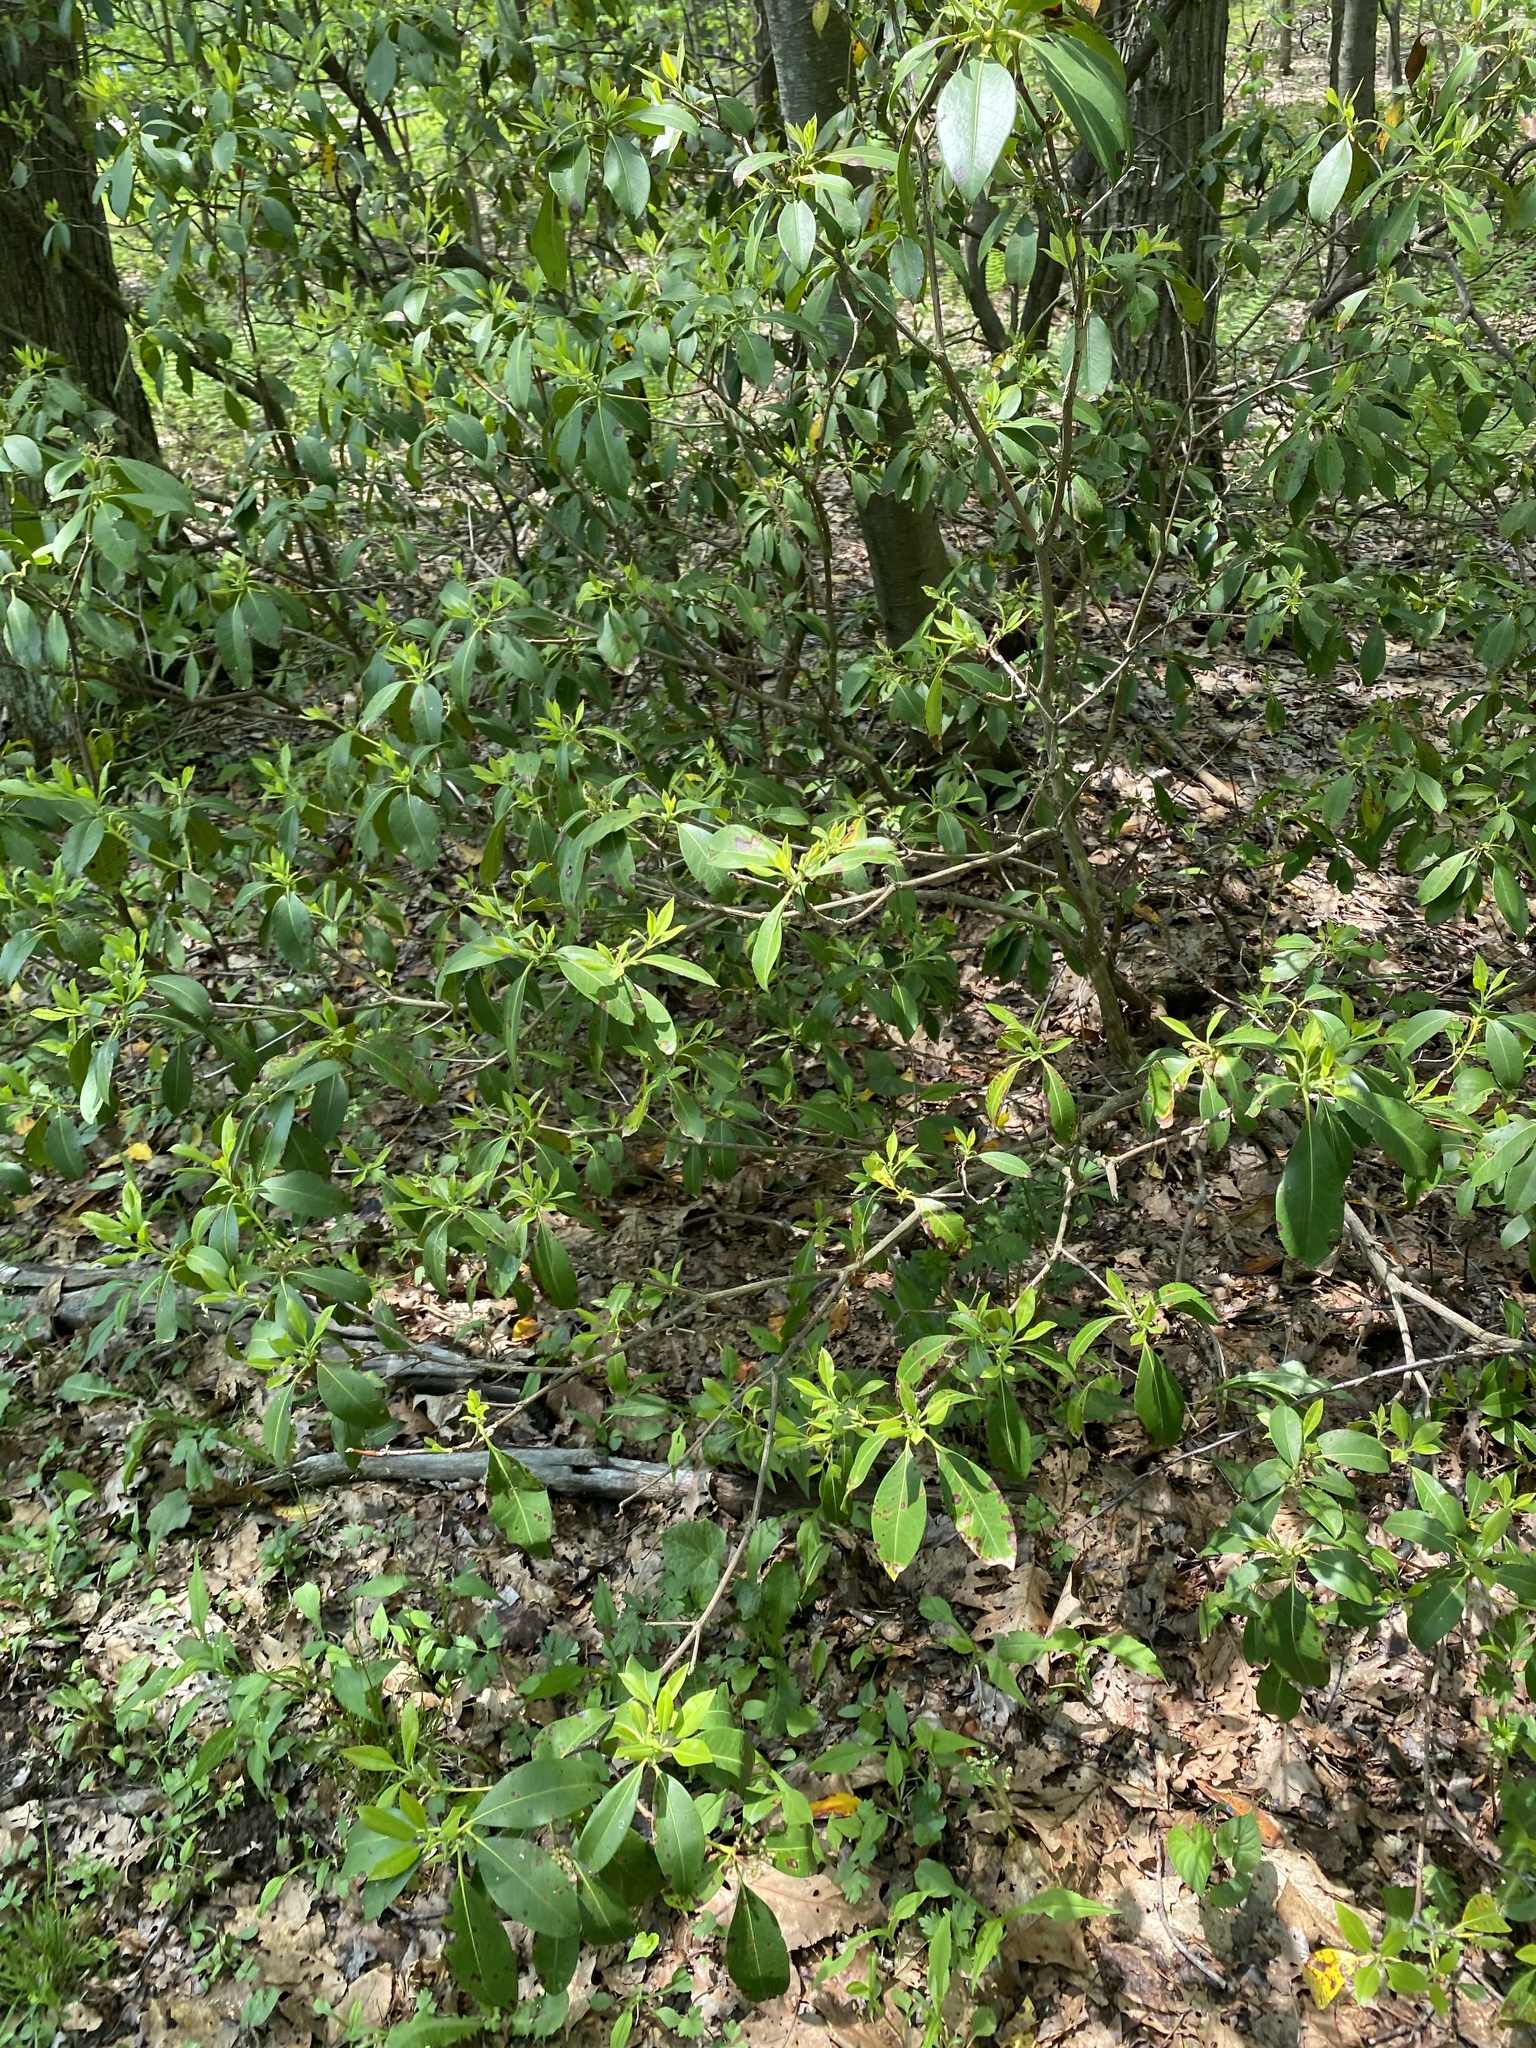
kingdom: Plantae
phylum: Tracheophyta
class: Magnoliopsida
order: Ericales
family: Ericaceae
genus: Kalmia
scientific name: Kalmia latifolia
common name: Mountain-laurel
